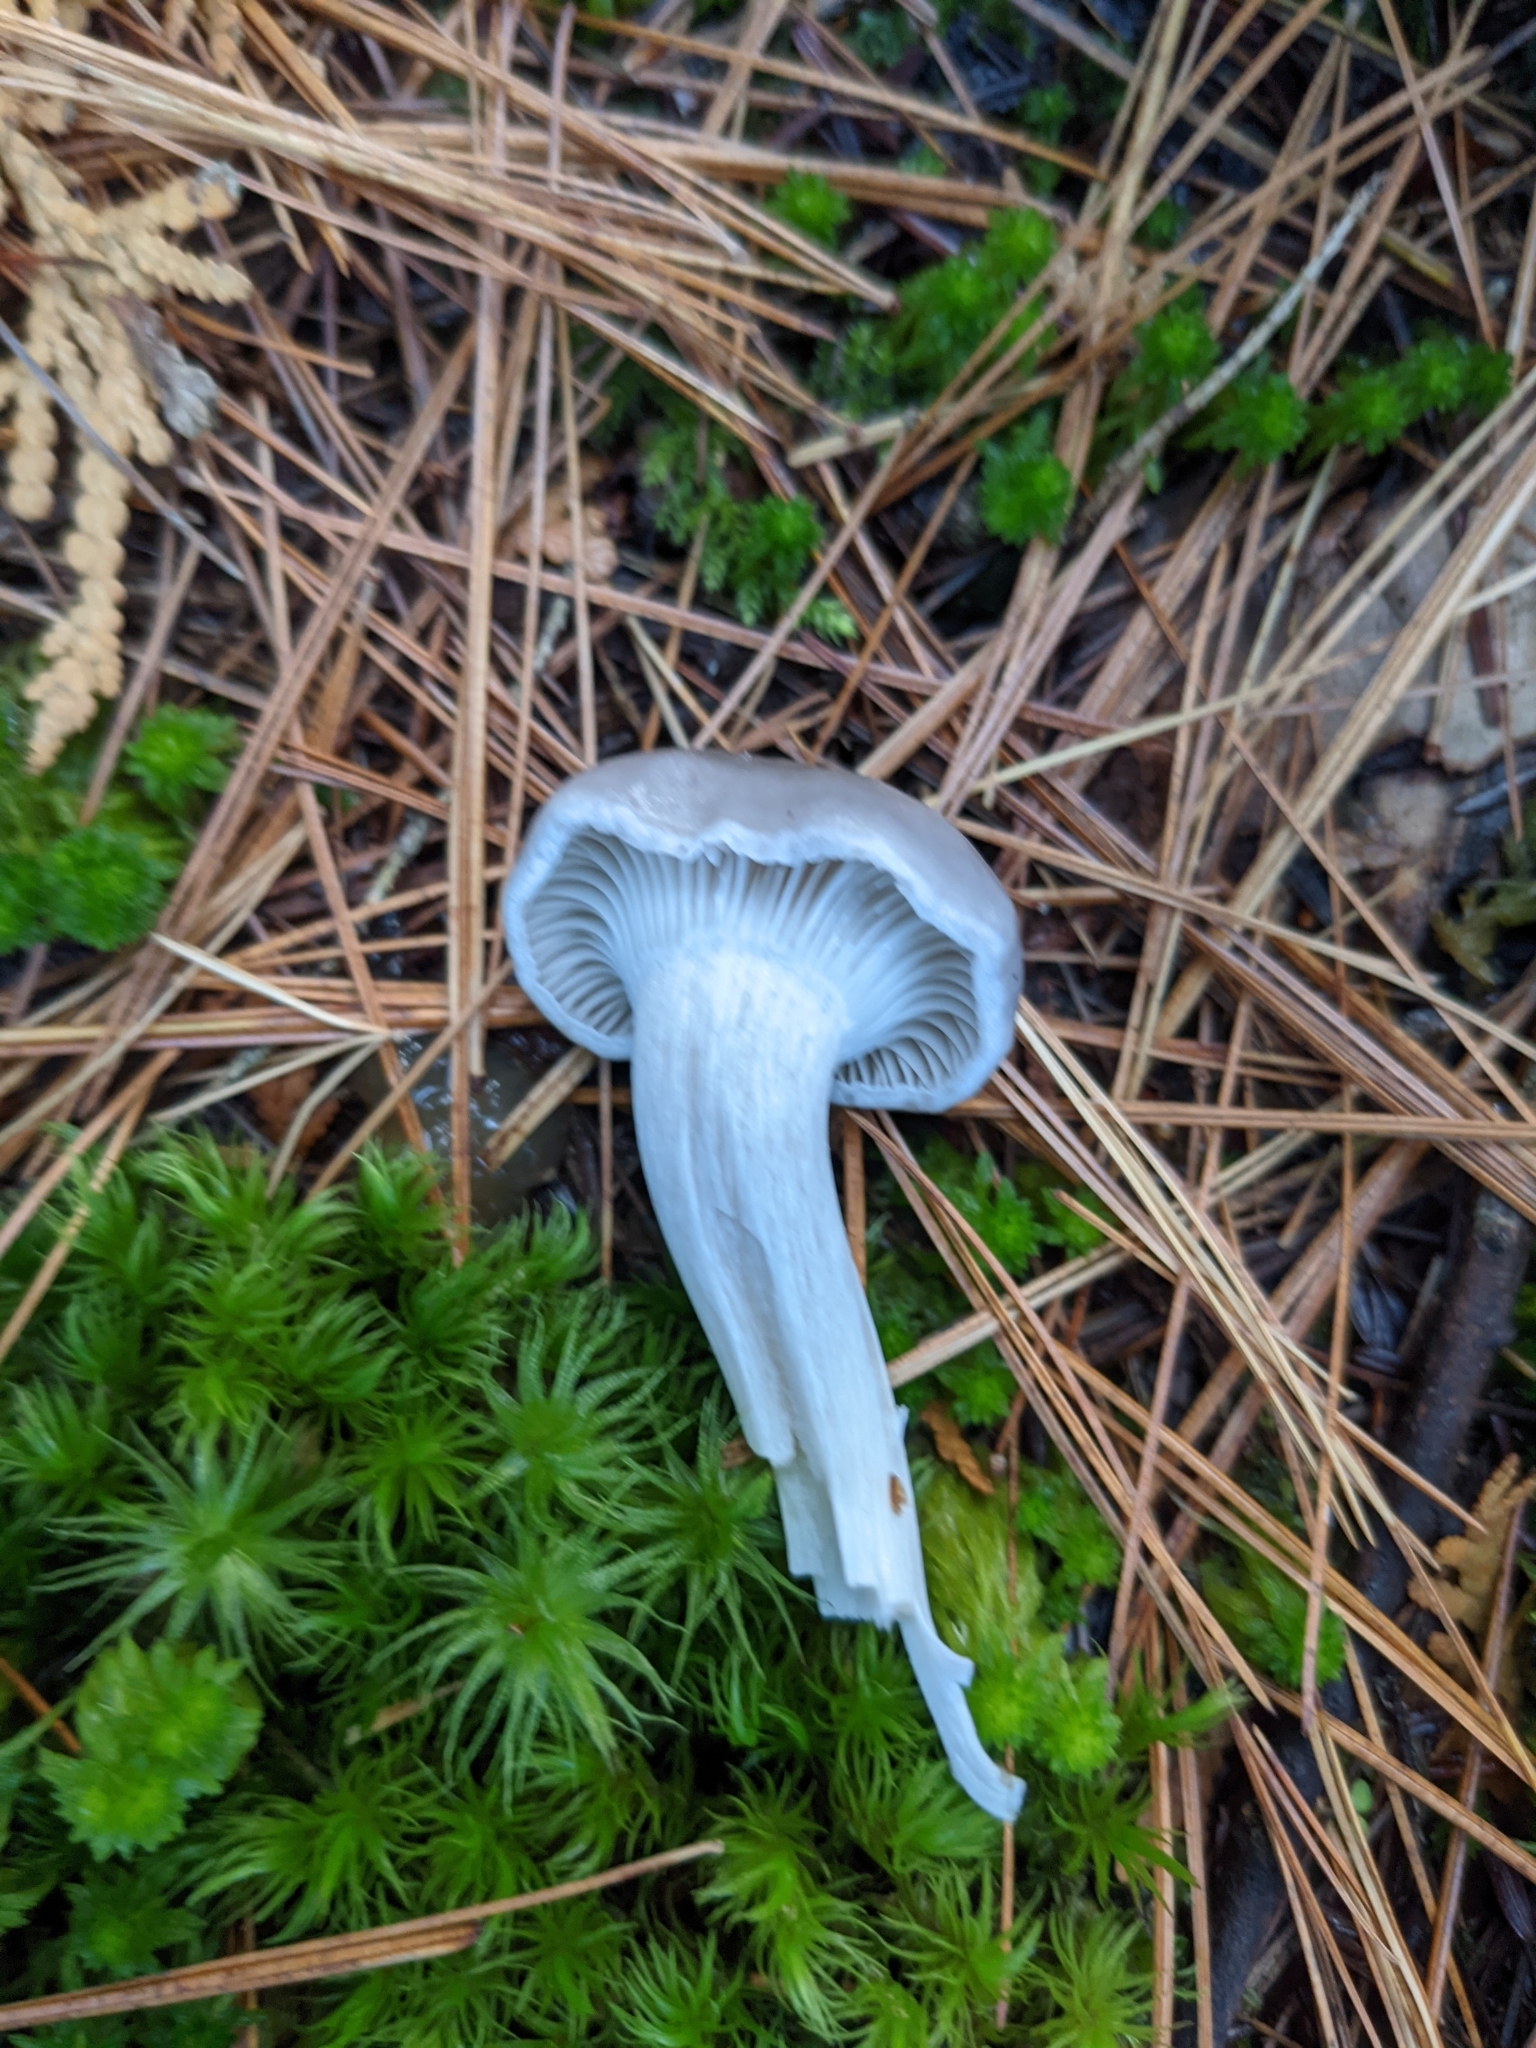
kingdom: Fungi
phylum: Basidiomycota
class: Agaricomycetes
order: Agaricales
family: Hygrophoraceae
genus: Cuphophyllus
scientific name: Cuphophyllus lacmus
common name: Grey waxcap
